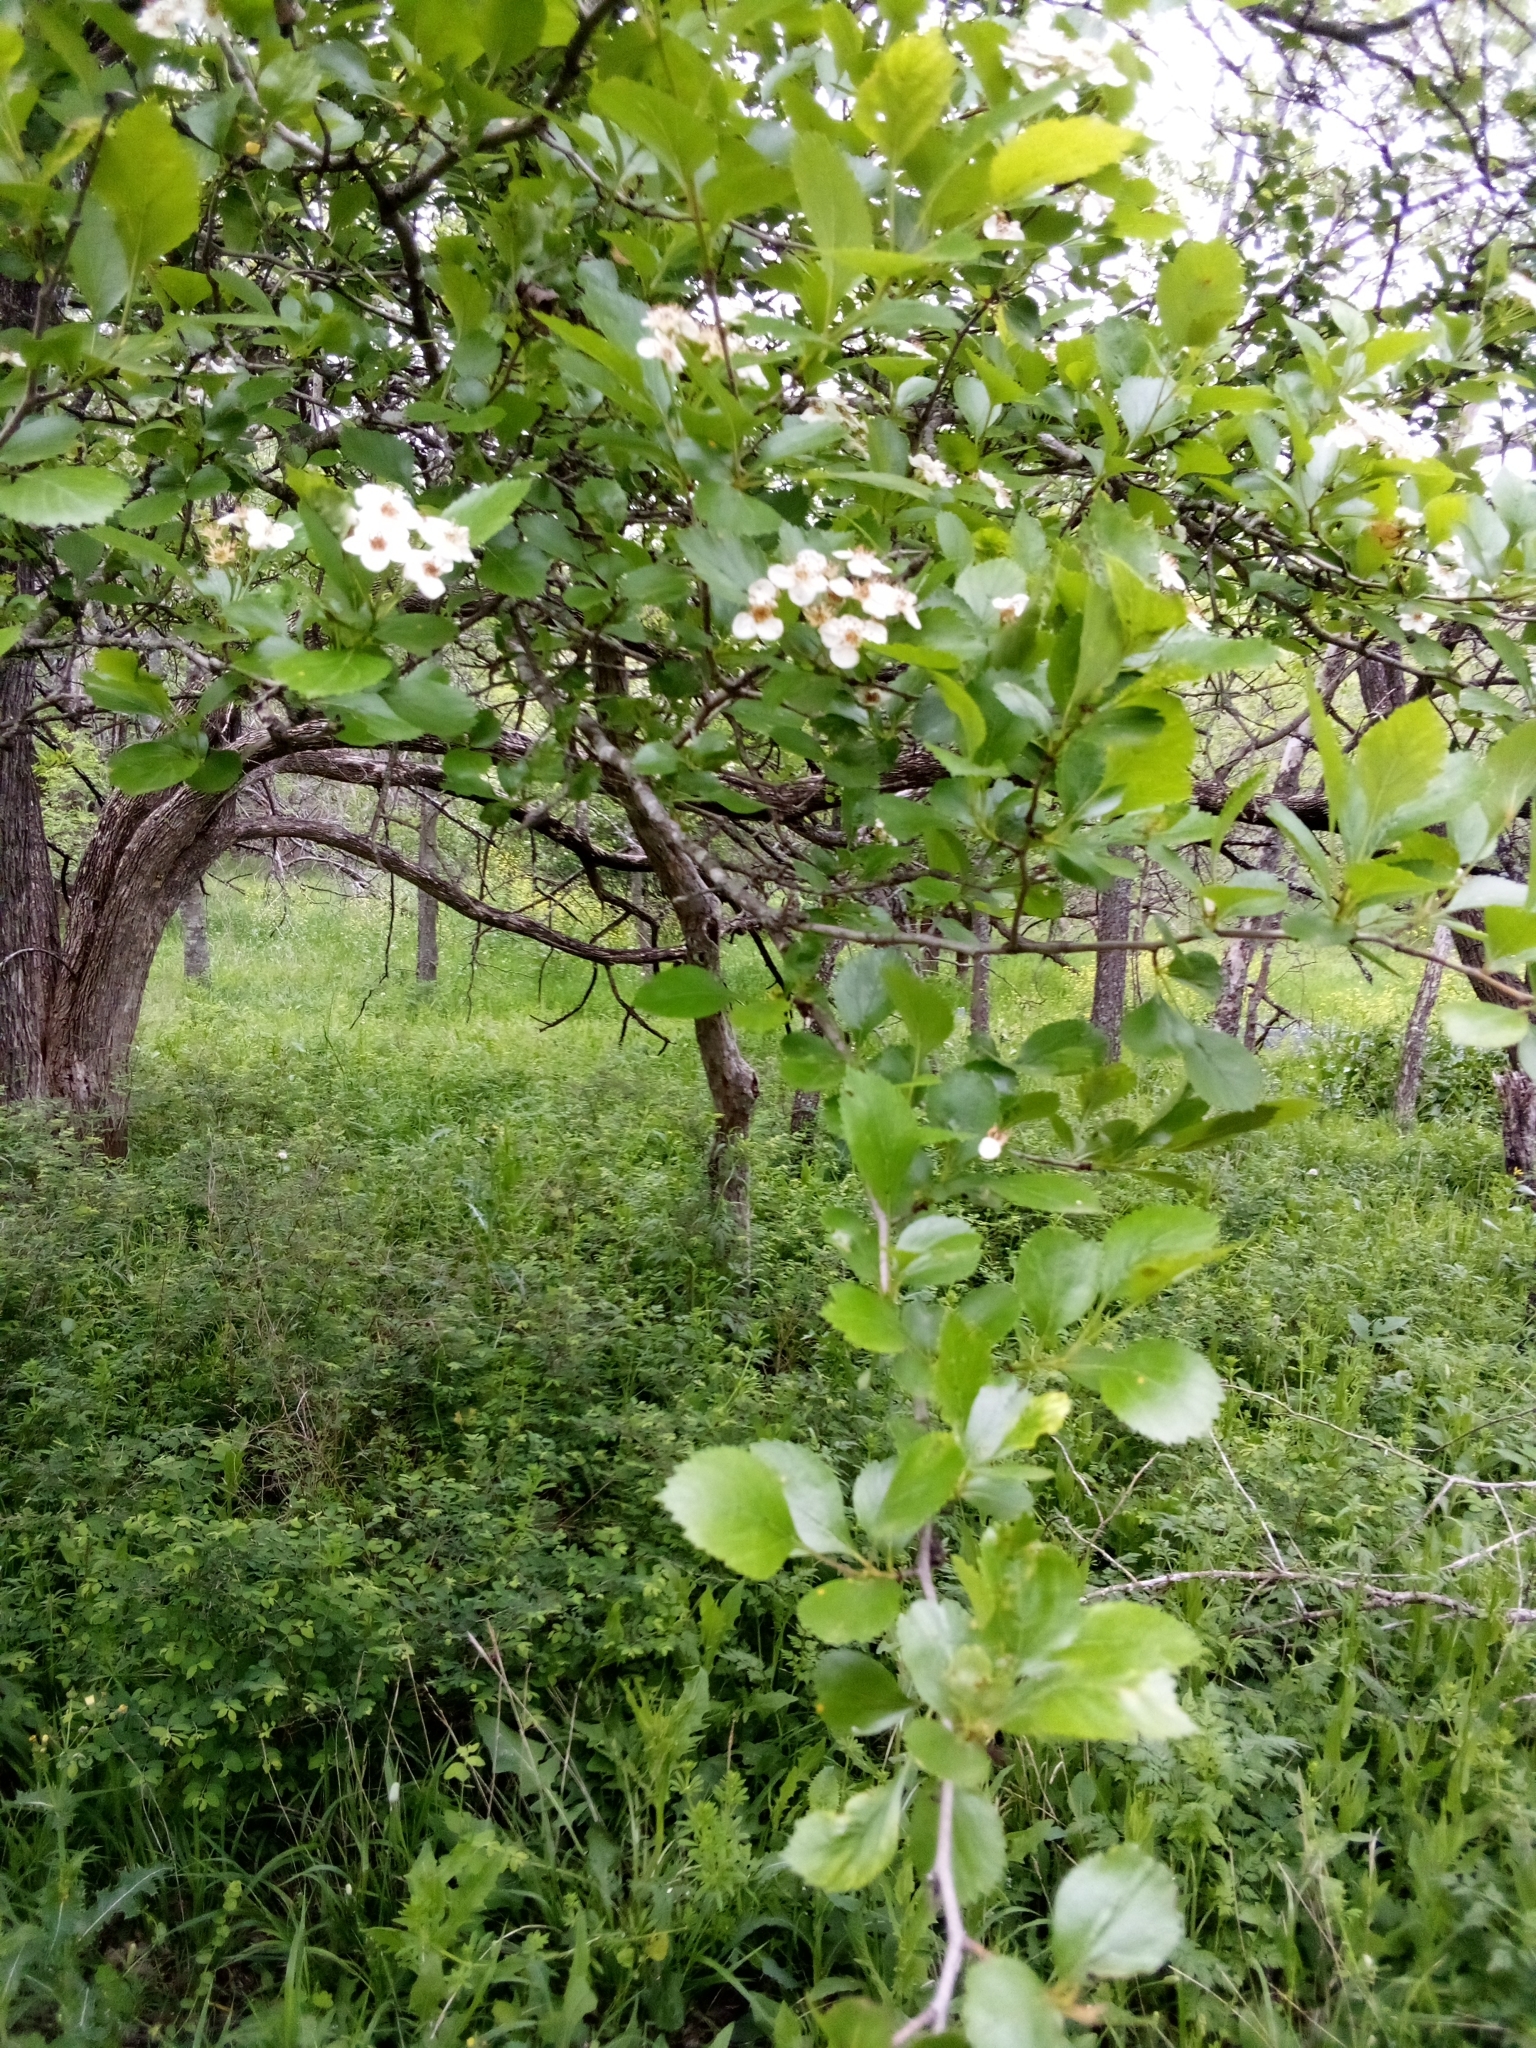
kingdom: Plantae
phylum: Tracheophyta
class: Magnoliopsida
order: Rosales
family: Rosaceae
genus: Crataegus
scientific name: Crataegus viridis
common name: Southernthorn
